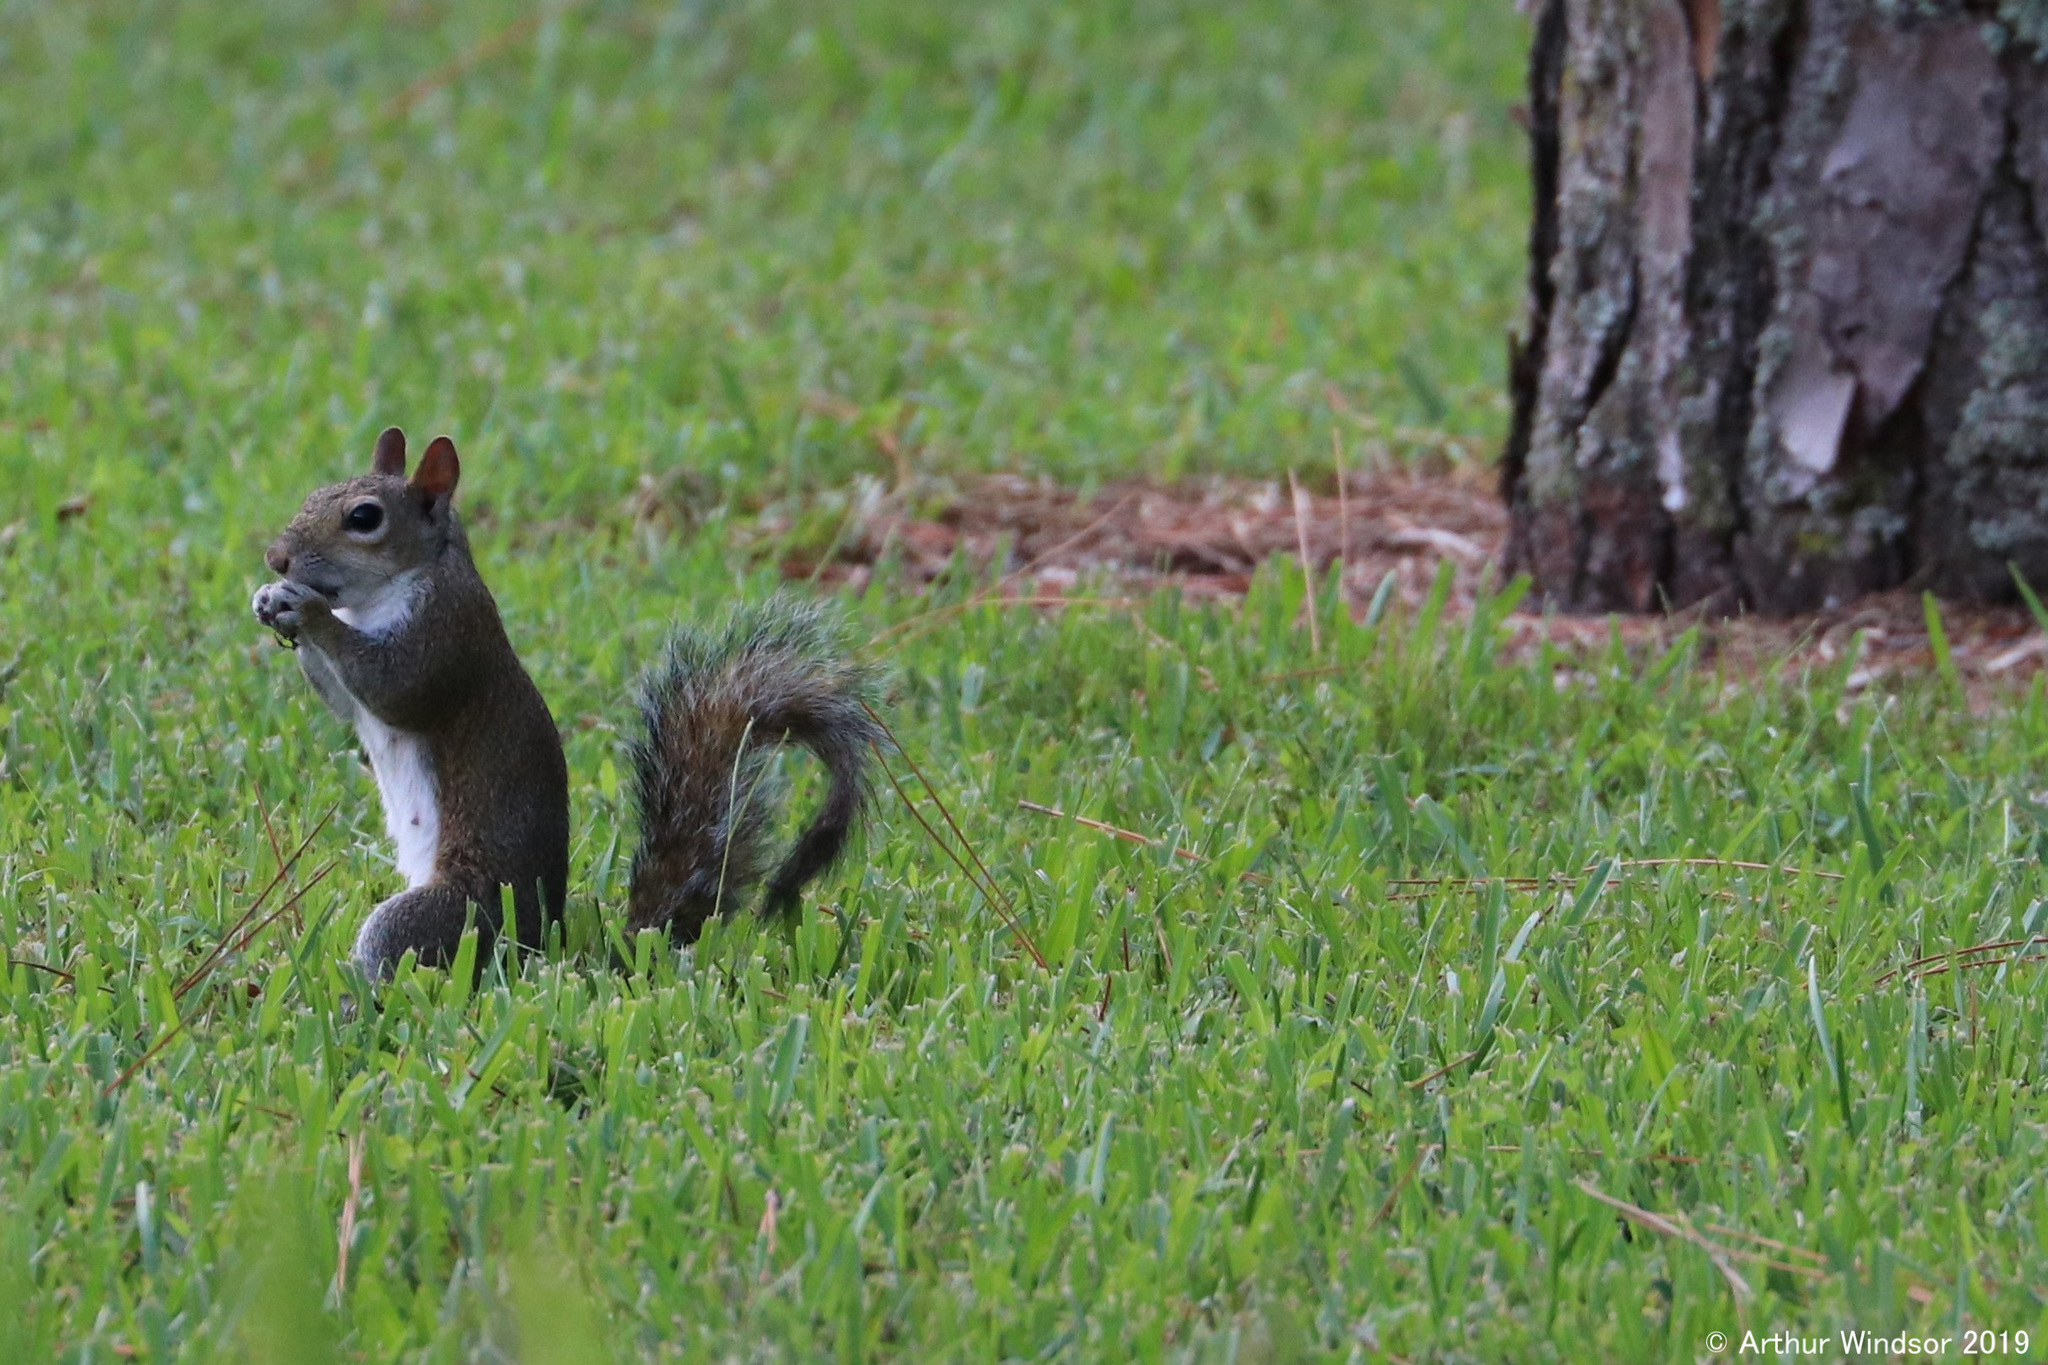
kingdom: Animalia
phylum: Chordata
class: Mammalia
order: Rodentia
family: Sciuridae
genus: Sciurus
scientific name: Sciurus carolinensis
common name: Eastern gray squirrel
